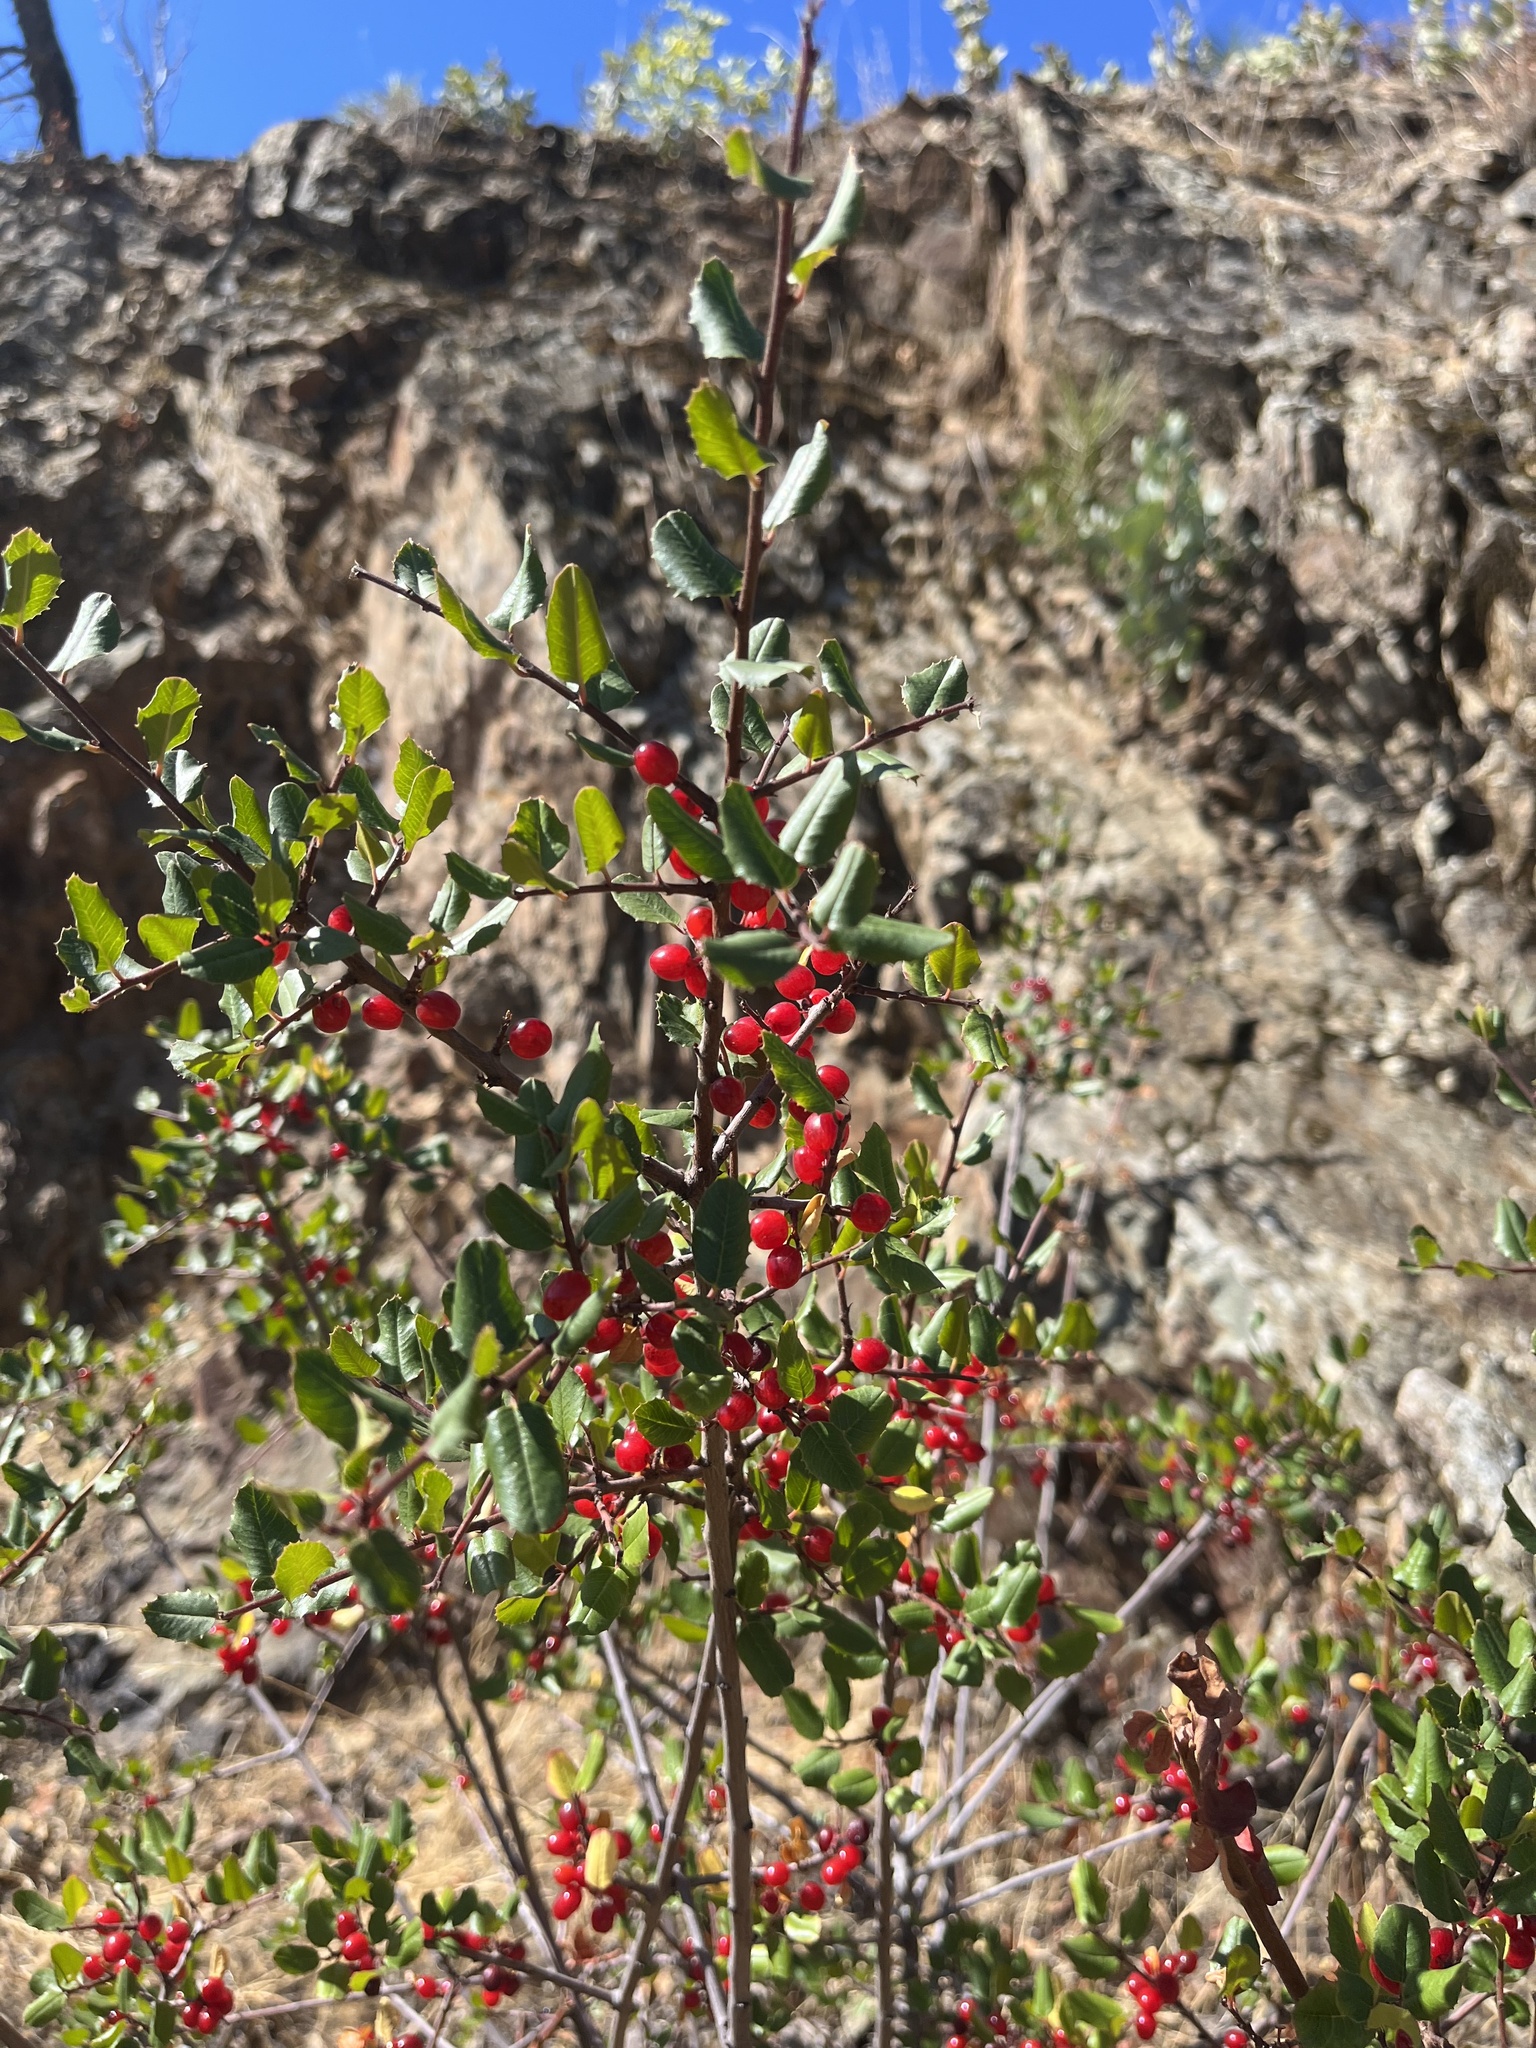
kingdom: Plantae
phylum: Tracheophyta
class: Magnoliopsida
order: Rosales
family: Rhamnaceae
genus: Endotropis
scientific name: Endotropis crocea
